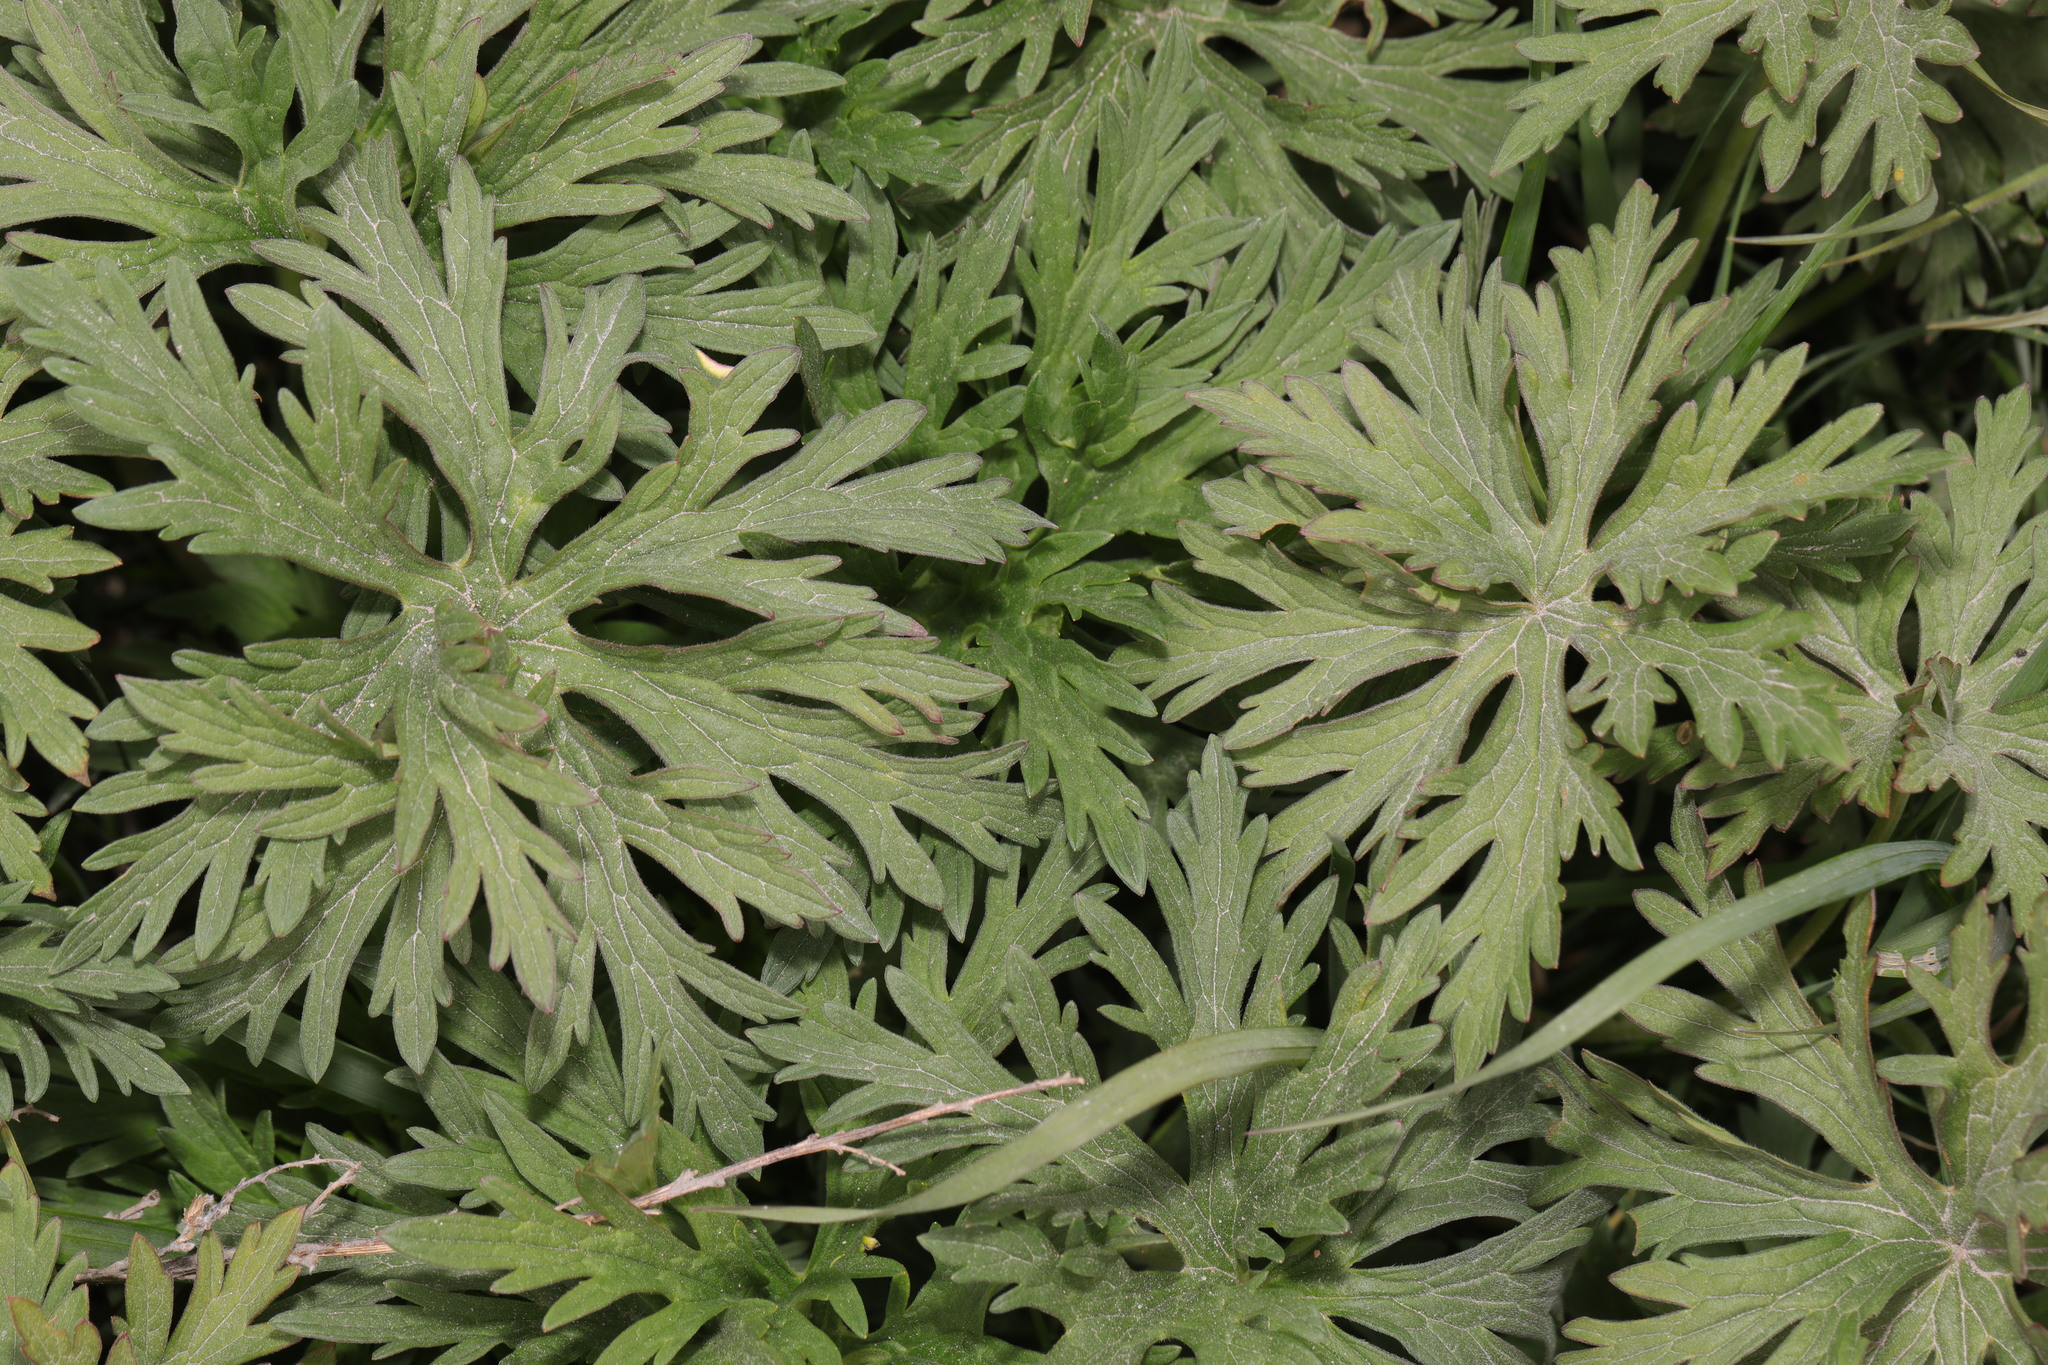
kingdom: Plantae
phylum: Tracheophyta
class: Magnoliopsida
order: Geraniales
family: Geraniaceae
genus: Geranium
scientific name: Geranium pratense
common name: Meadow crane's-bill
